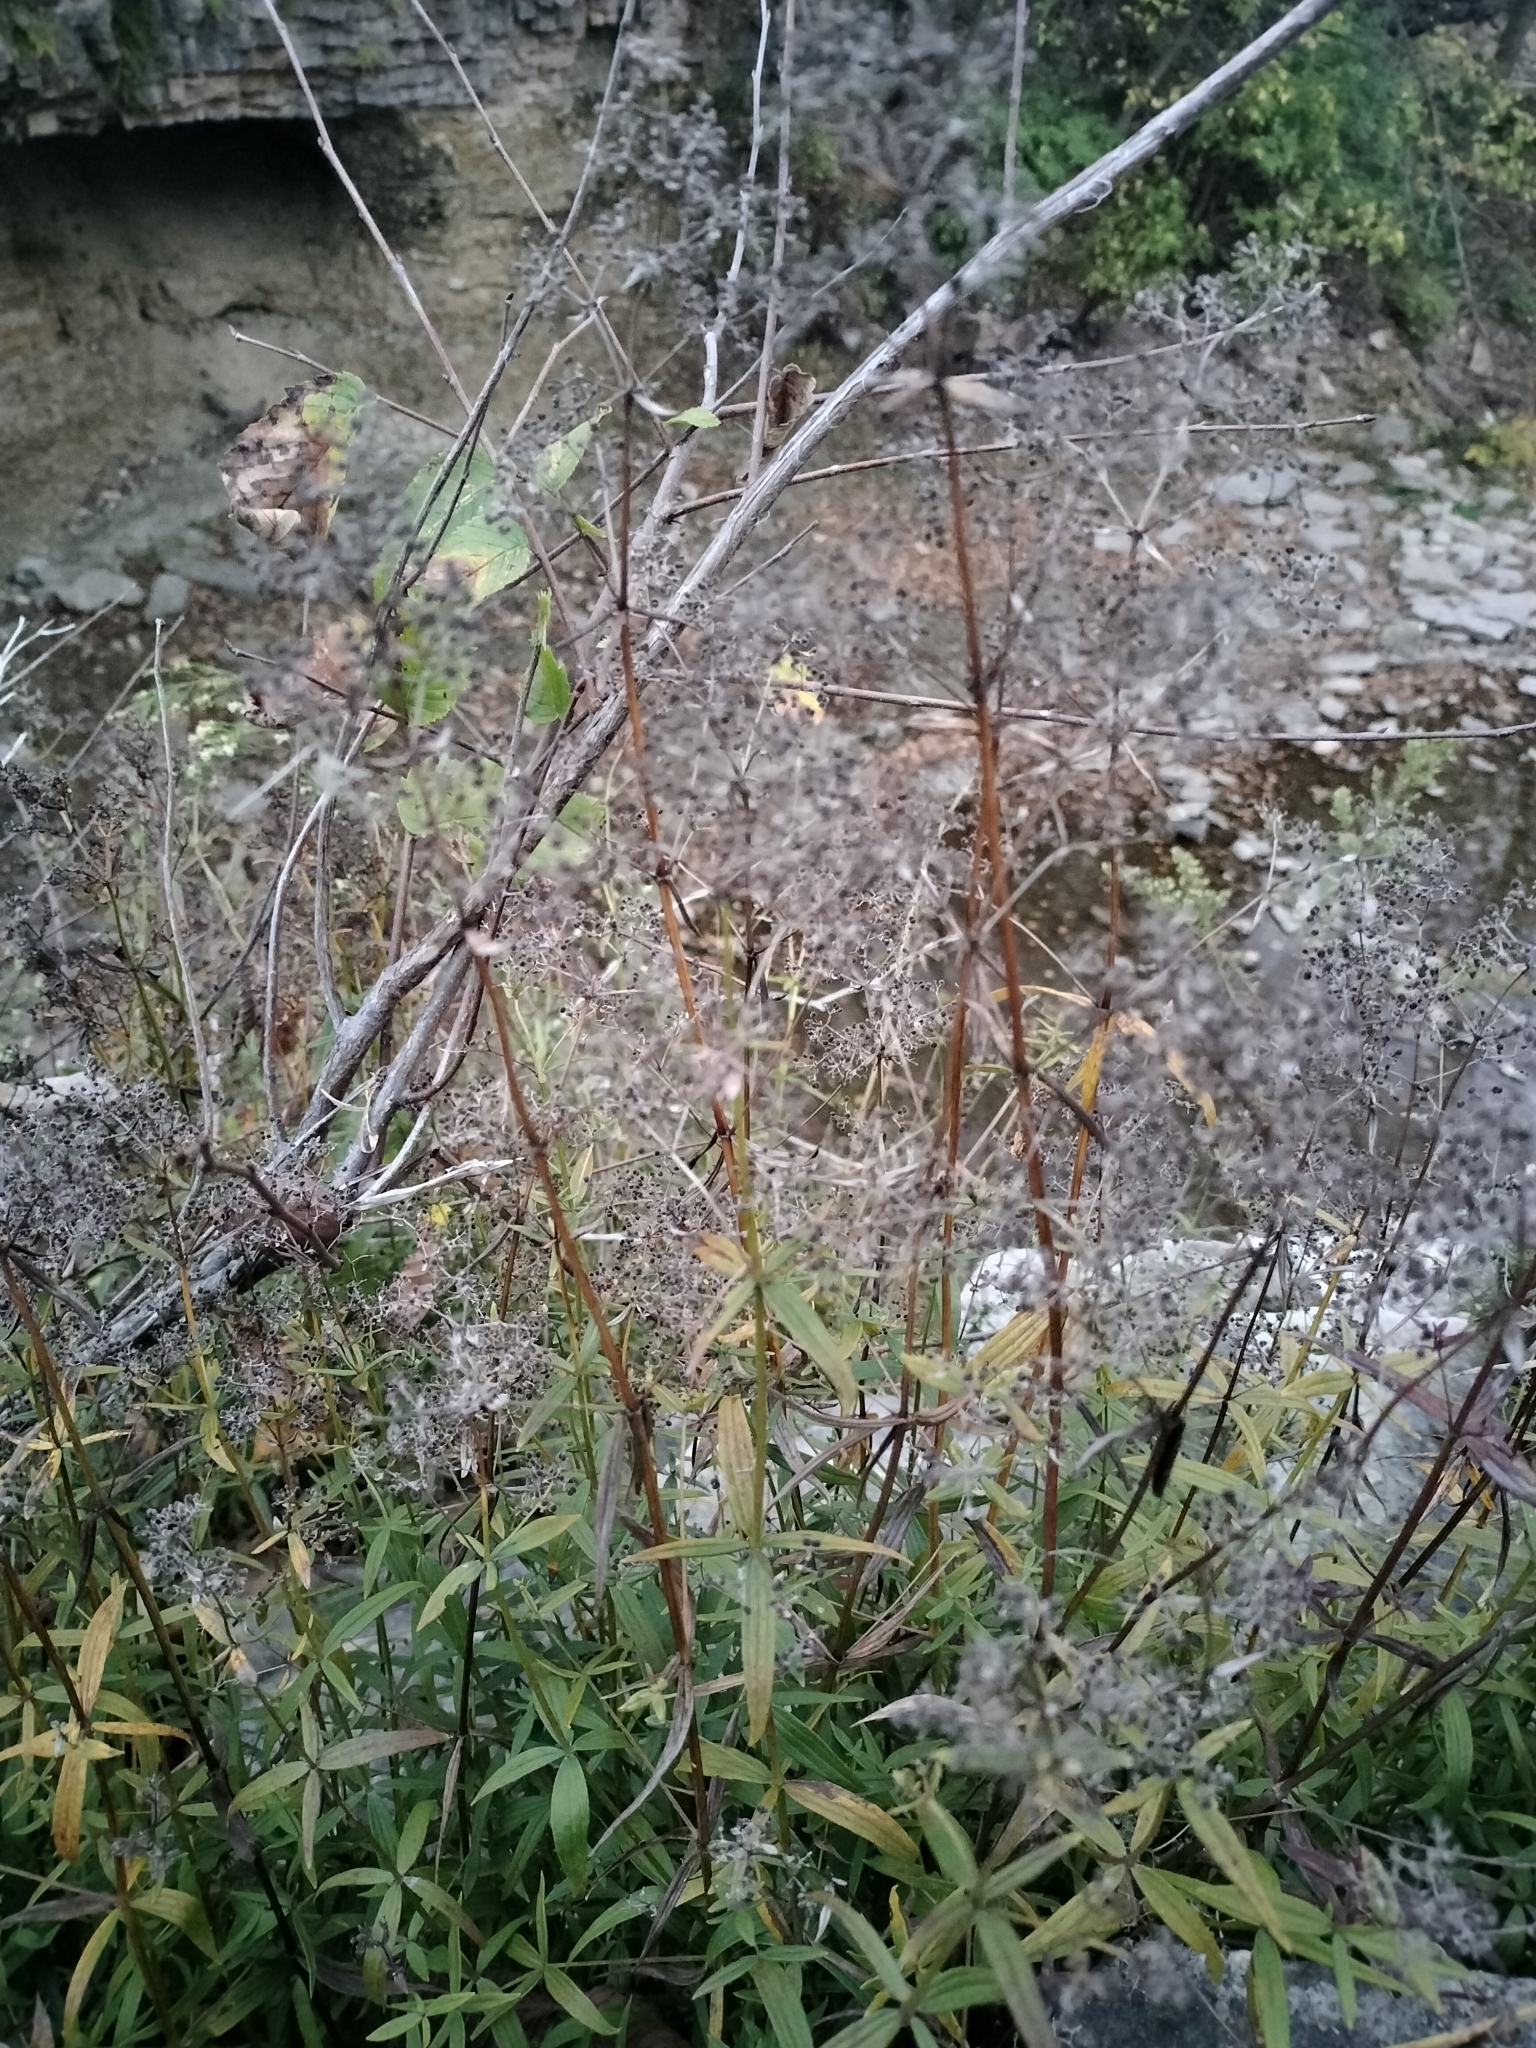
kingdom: Plantae
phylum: Tracheophyta
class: Magnoliopsida
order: Gentianales
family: Rubiaceae
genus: Galium
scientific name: Galium boreale
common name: Northern bedstraw
